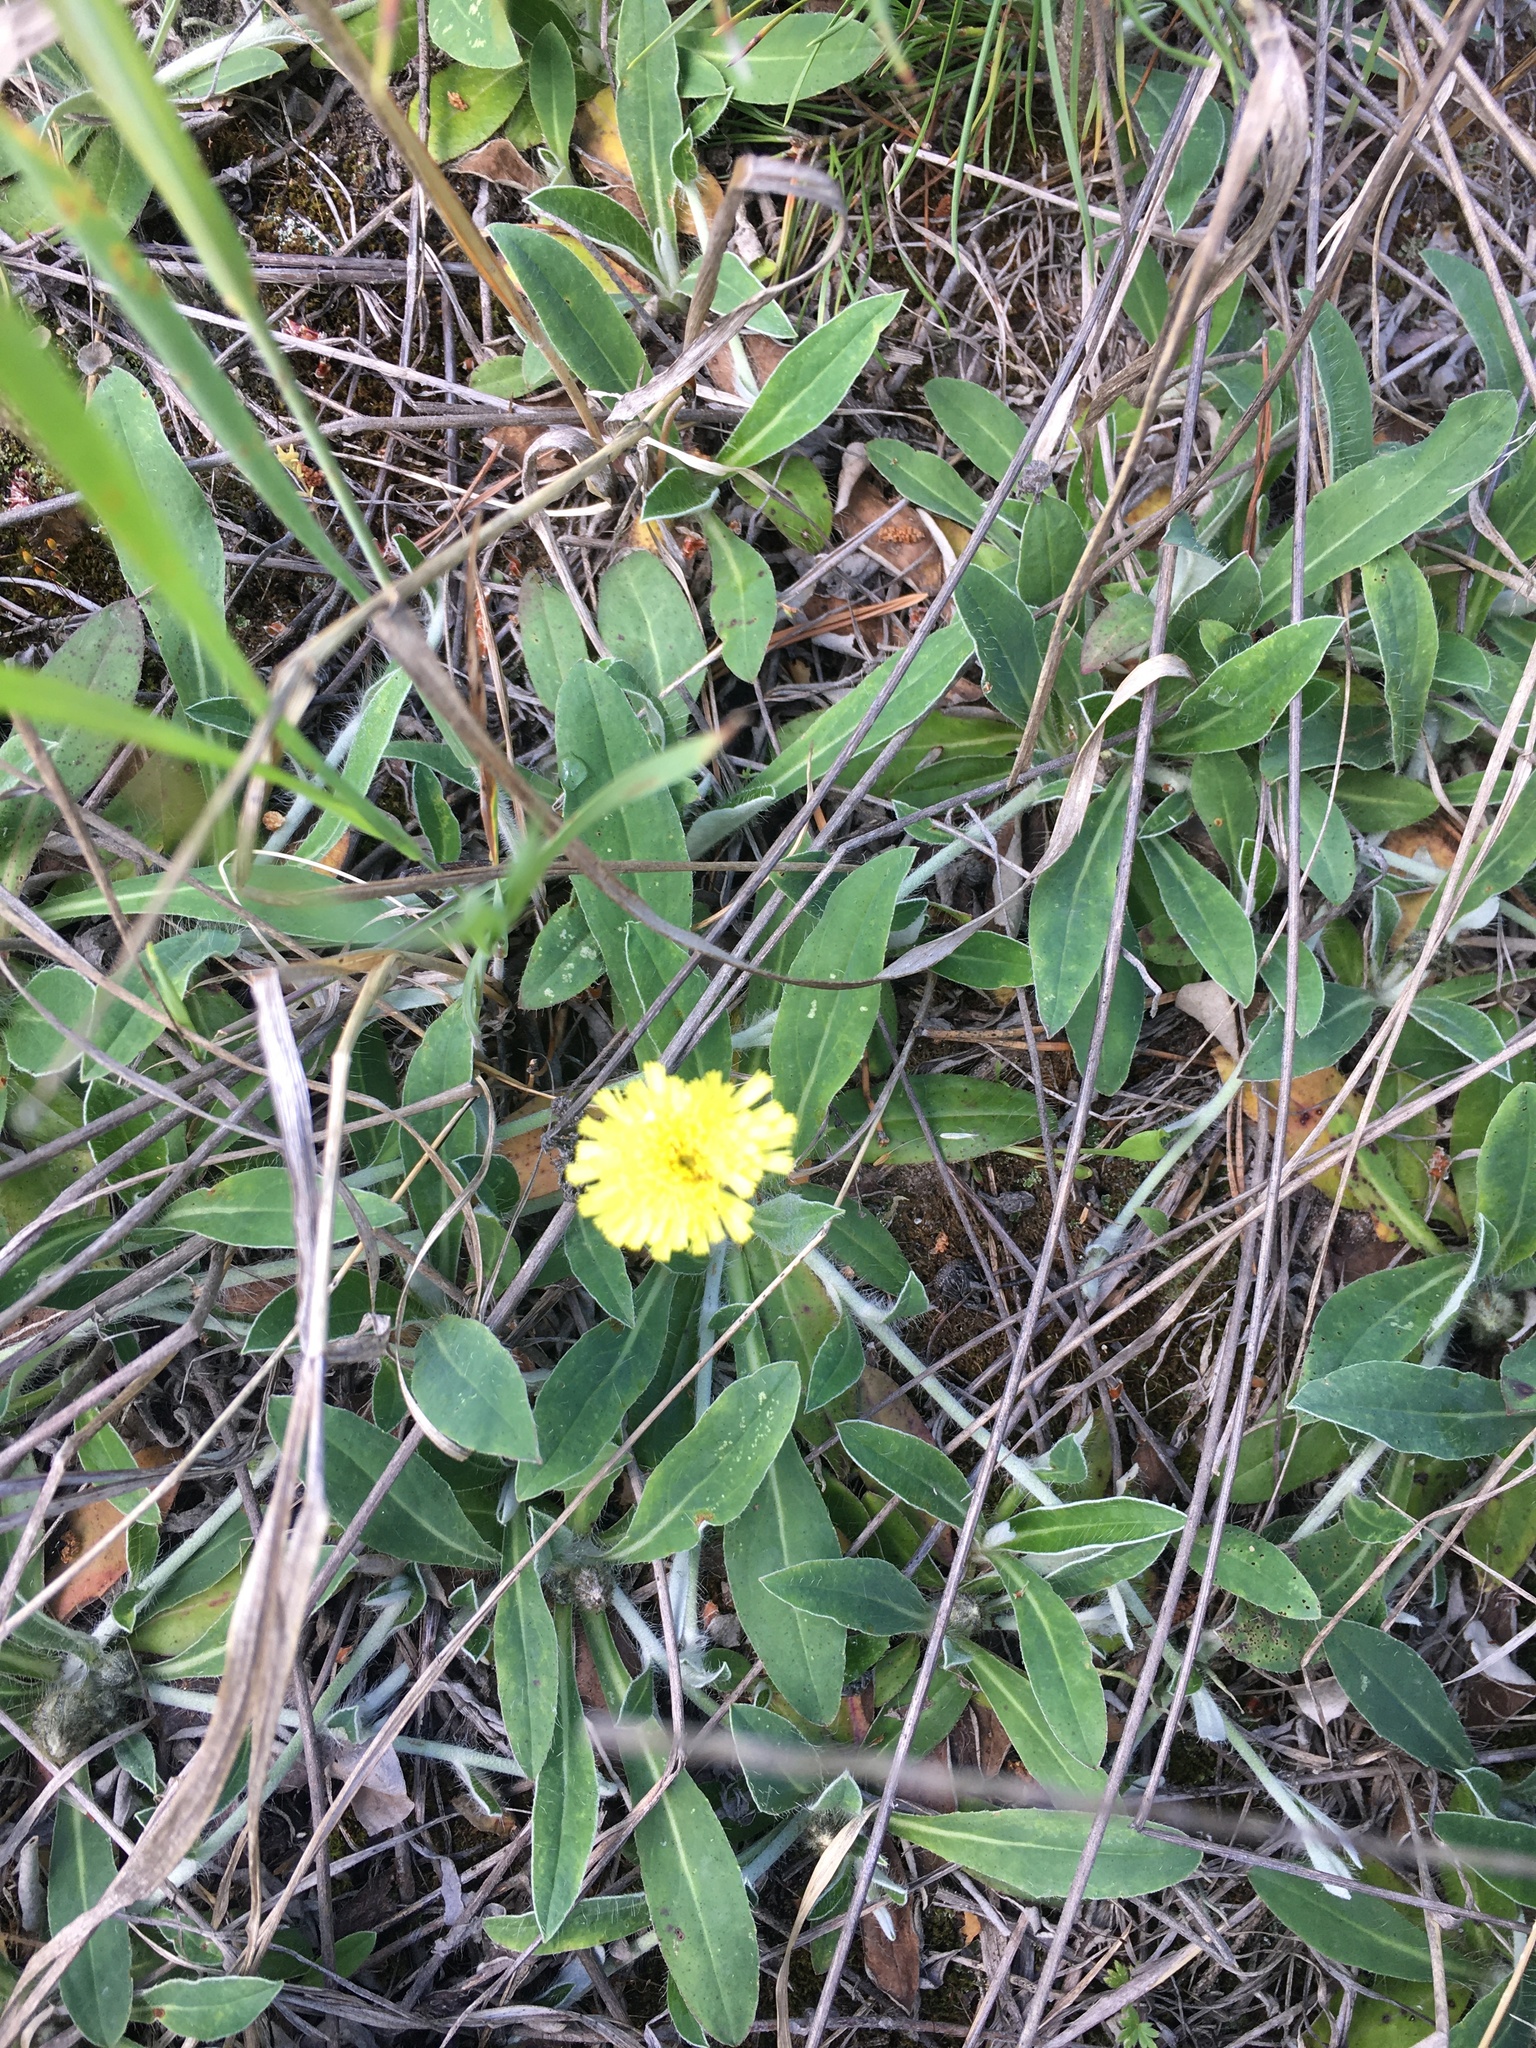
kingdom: Plantae
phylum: Tracheophyta
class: Magnoliopsida
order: Asterales
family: Asteraceae
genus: Pilosella
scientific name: Pilosella officinarum
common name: Mouse-ear hawkweed
